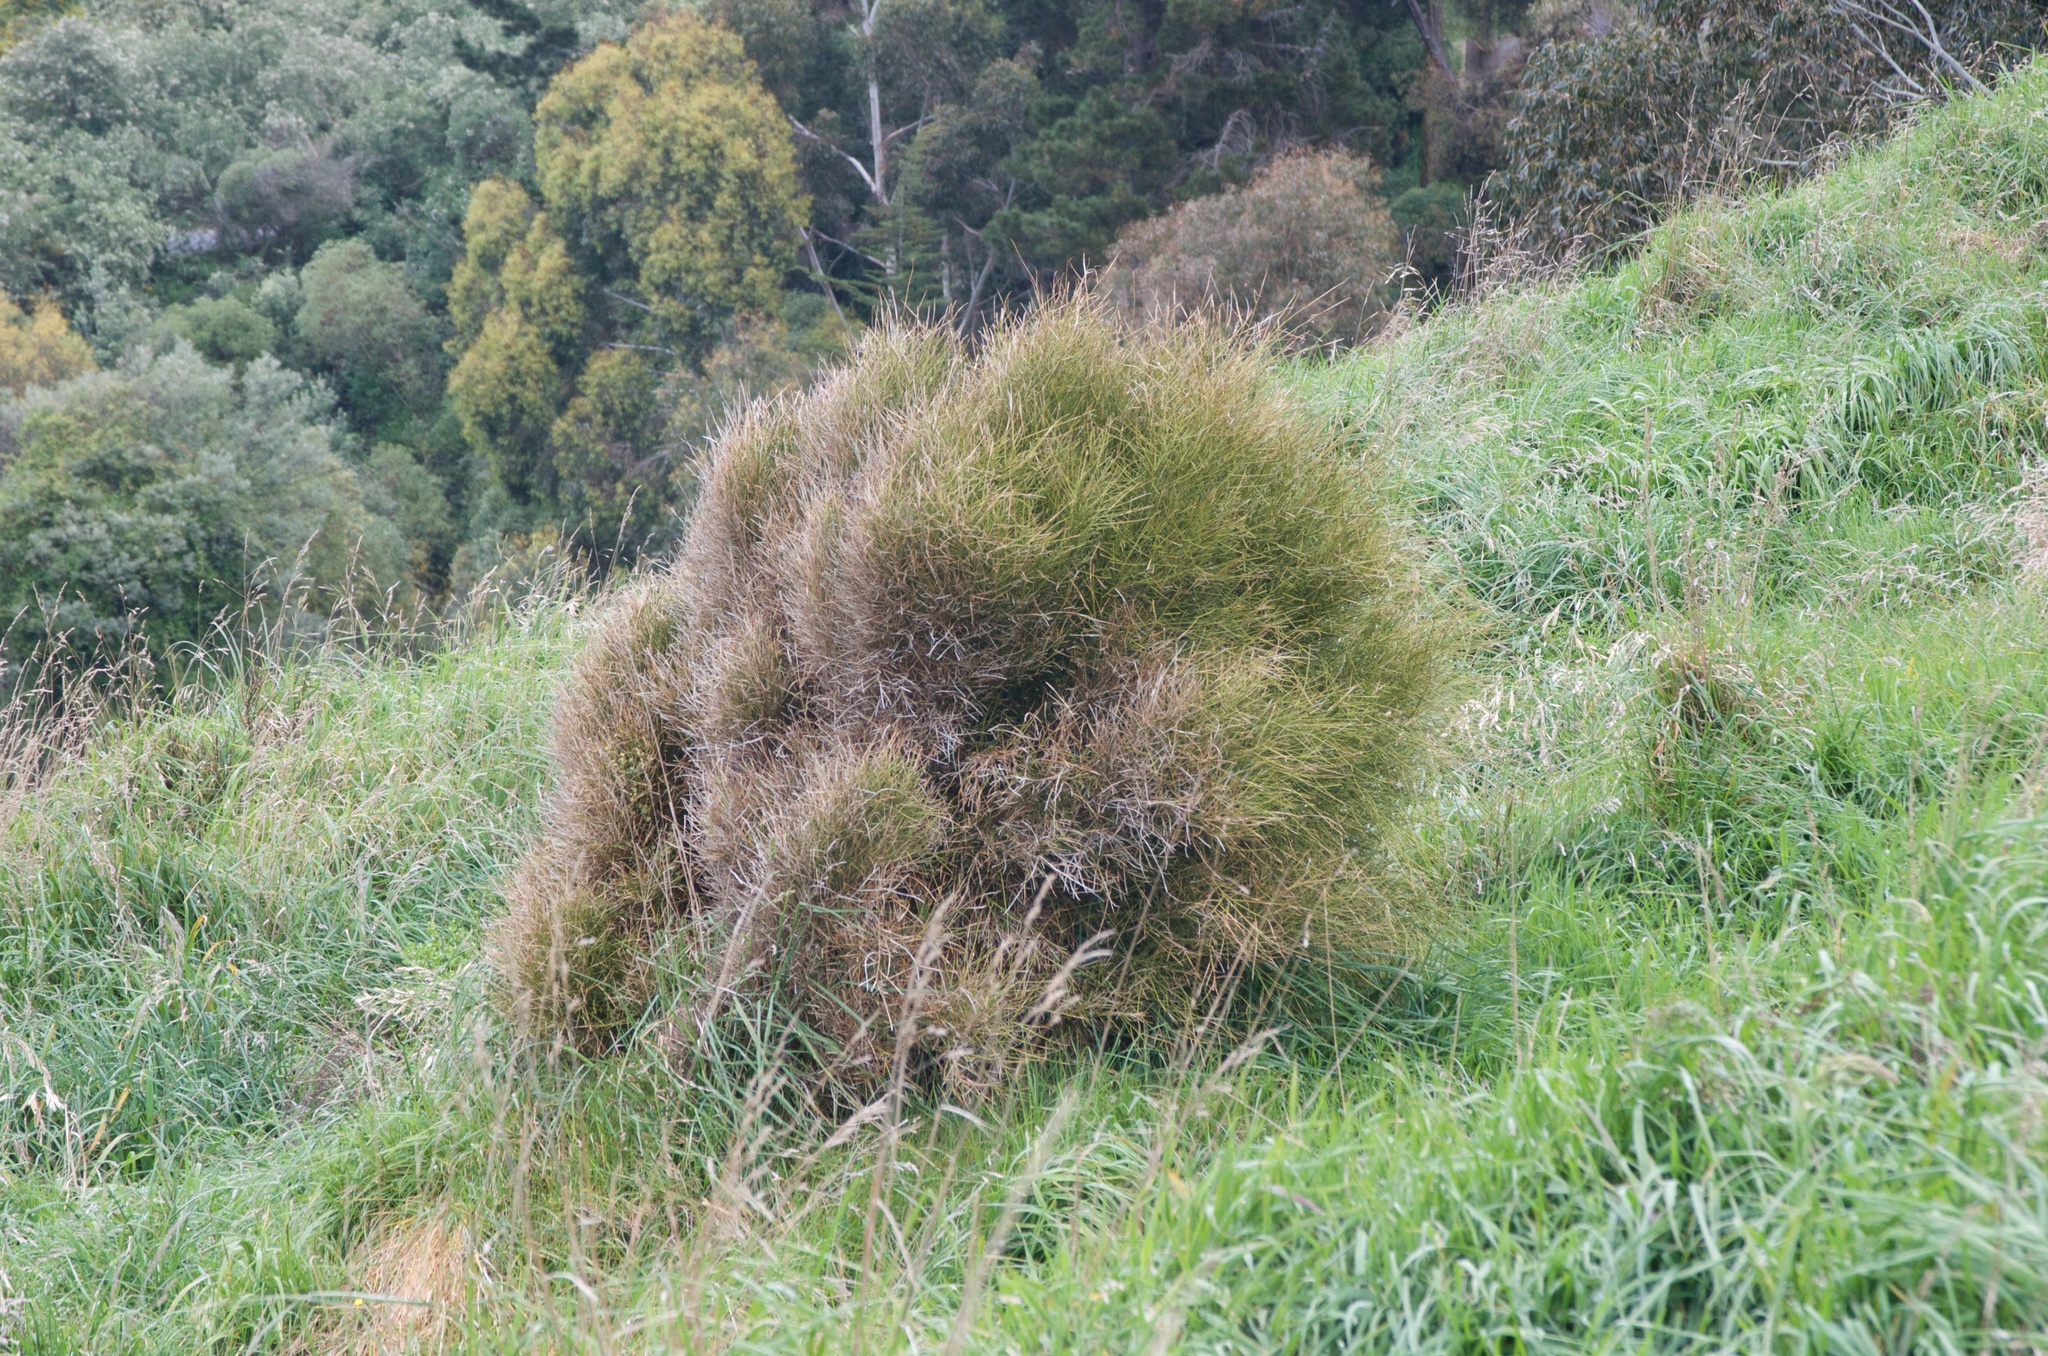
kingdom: Plantae
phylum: Tracheophyta
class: Magnoliopsida
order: Fabales
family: Fabaceae
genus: Carmichaelia
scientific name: Carmichaelia australis
